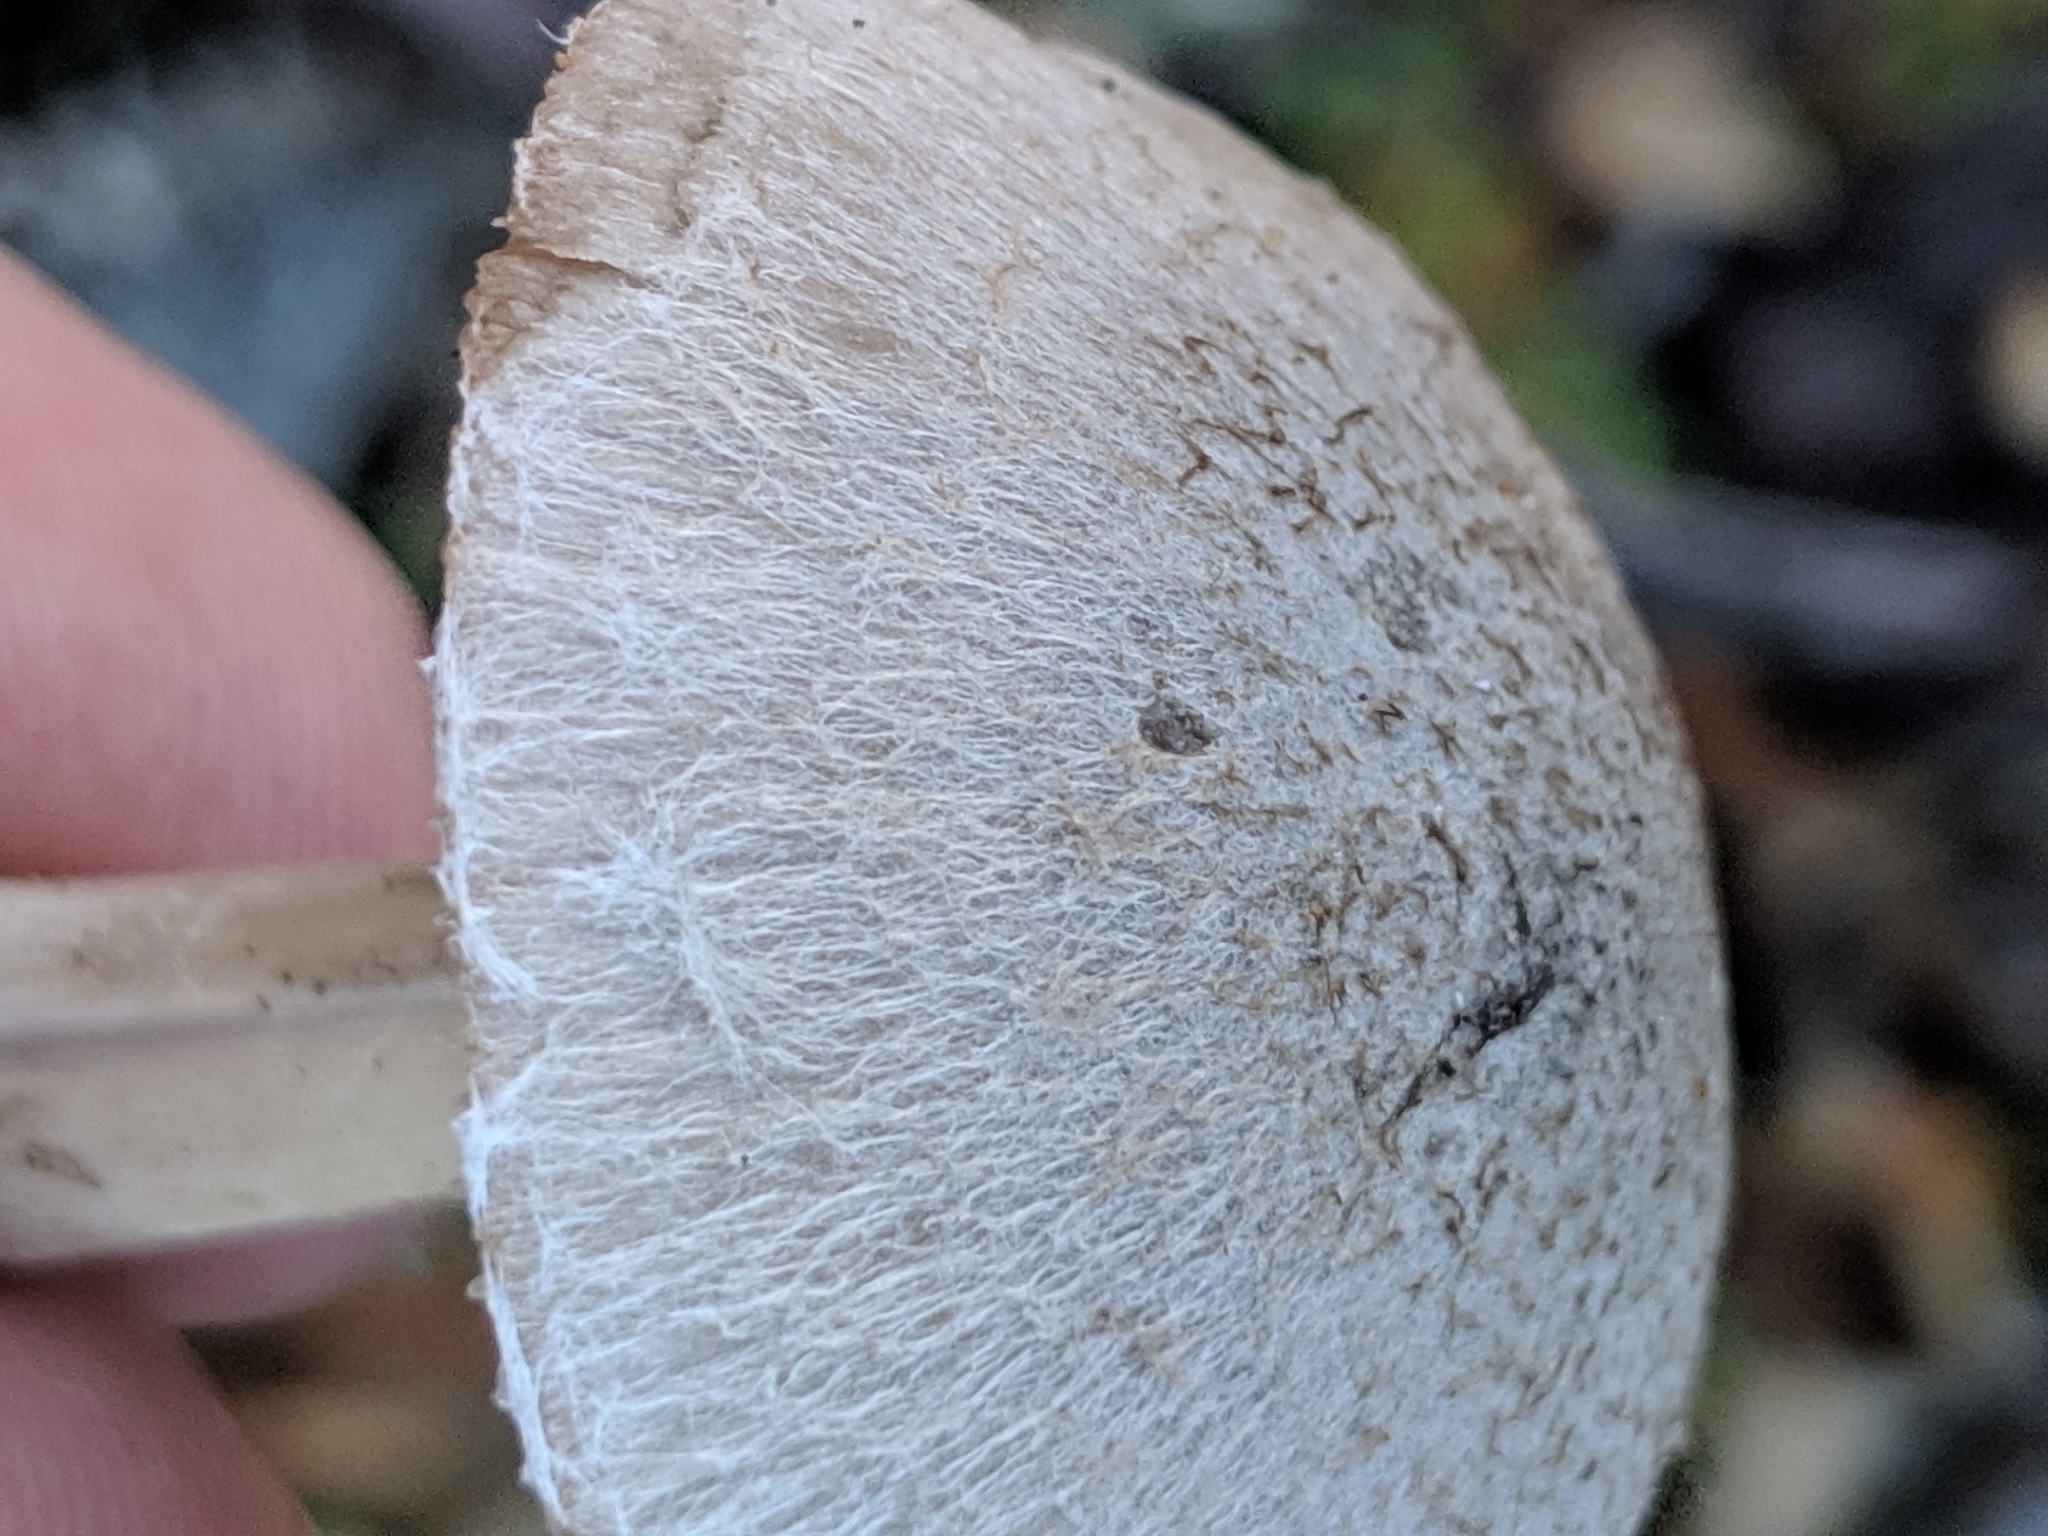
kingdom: Fungi
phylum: Basidiomycota
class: Agaricomycetes
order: Agaricales
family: Psathyrellaceae
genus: Psathyrella
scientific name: Psathyrella uliginicola
